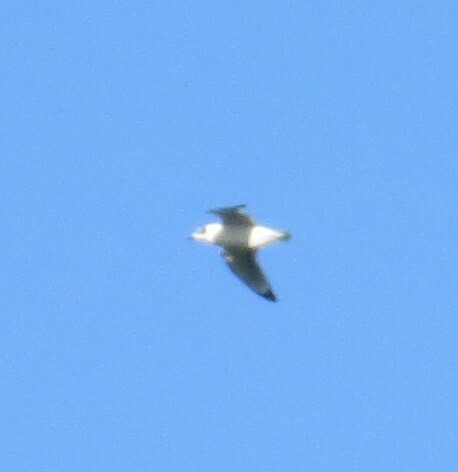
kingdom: Animalia
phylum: Chordata
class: Aves
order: Charadriiformes
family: Laridae
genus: Leucophaeus
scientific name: Leucophaeus pipixcan
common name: Franklin's gull
